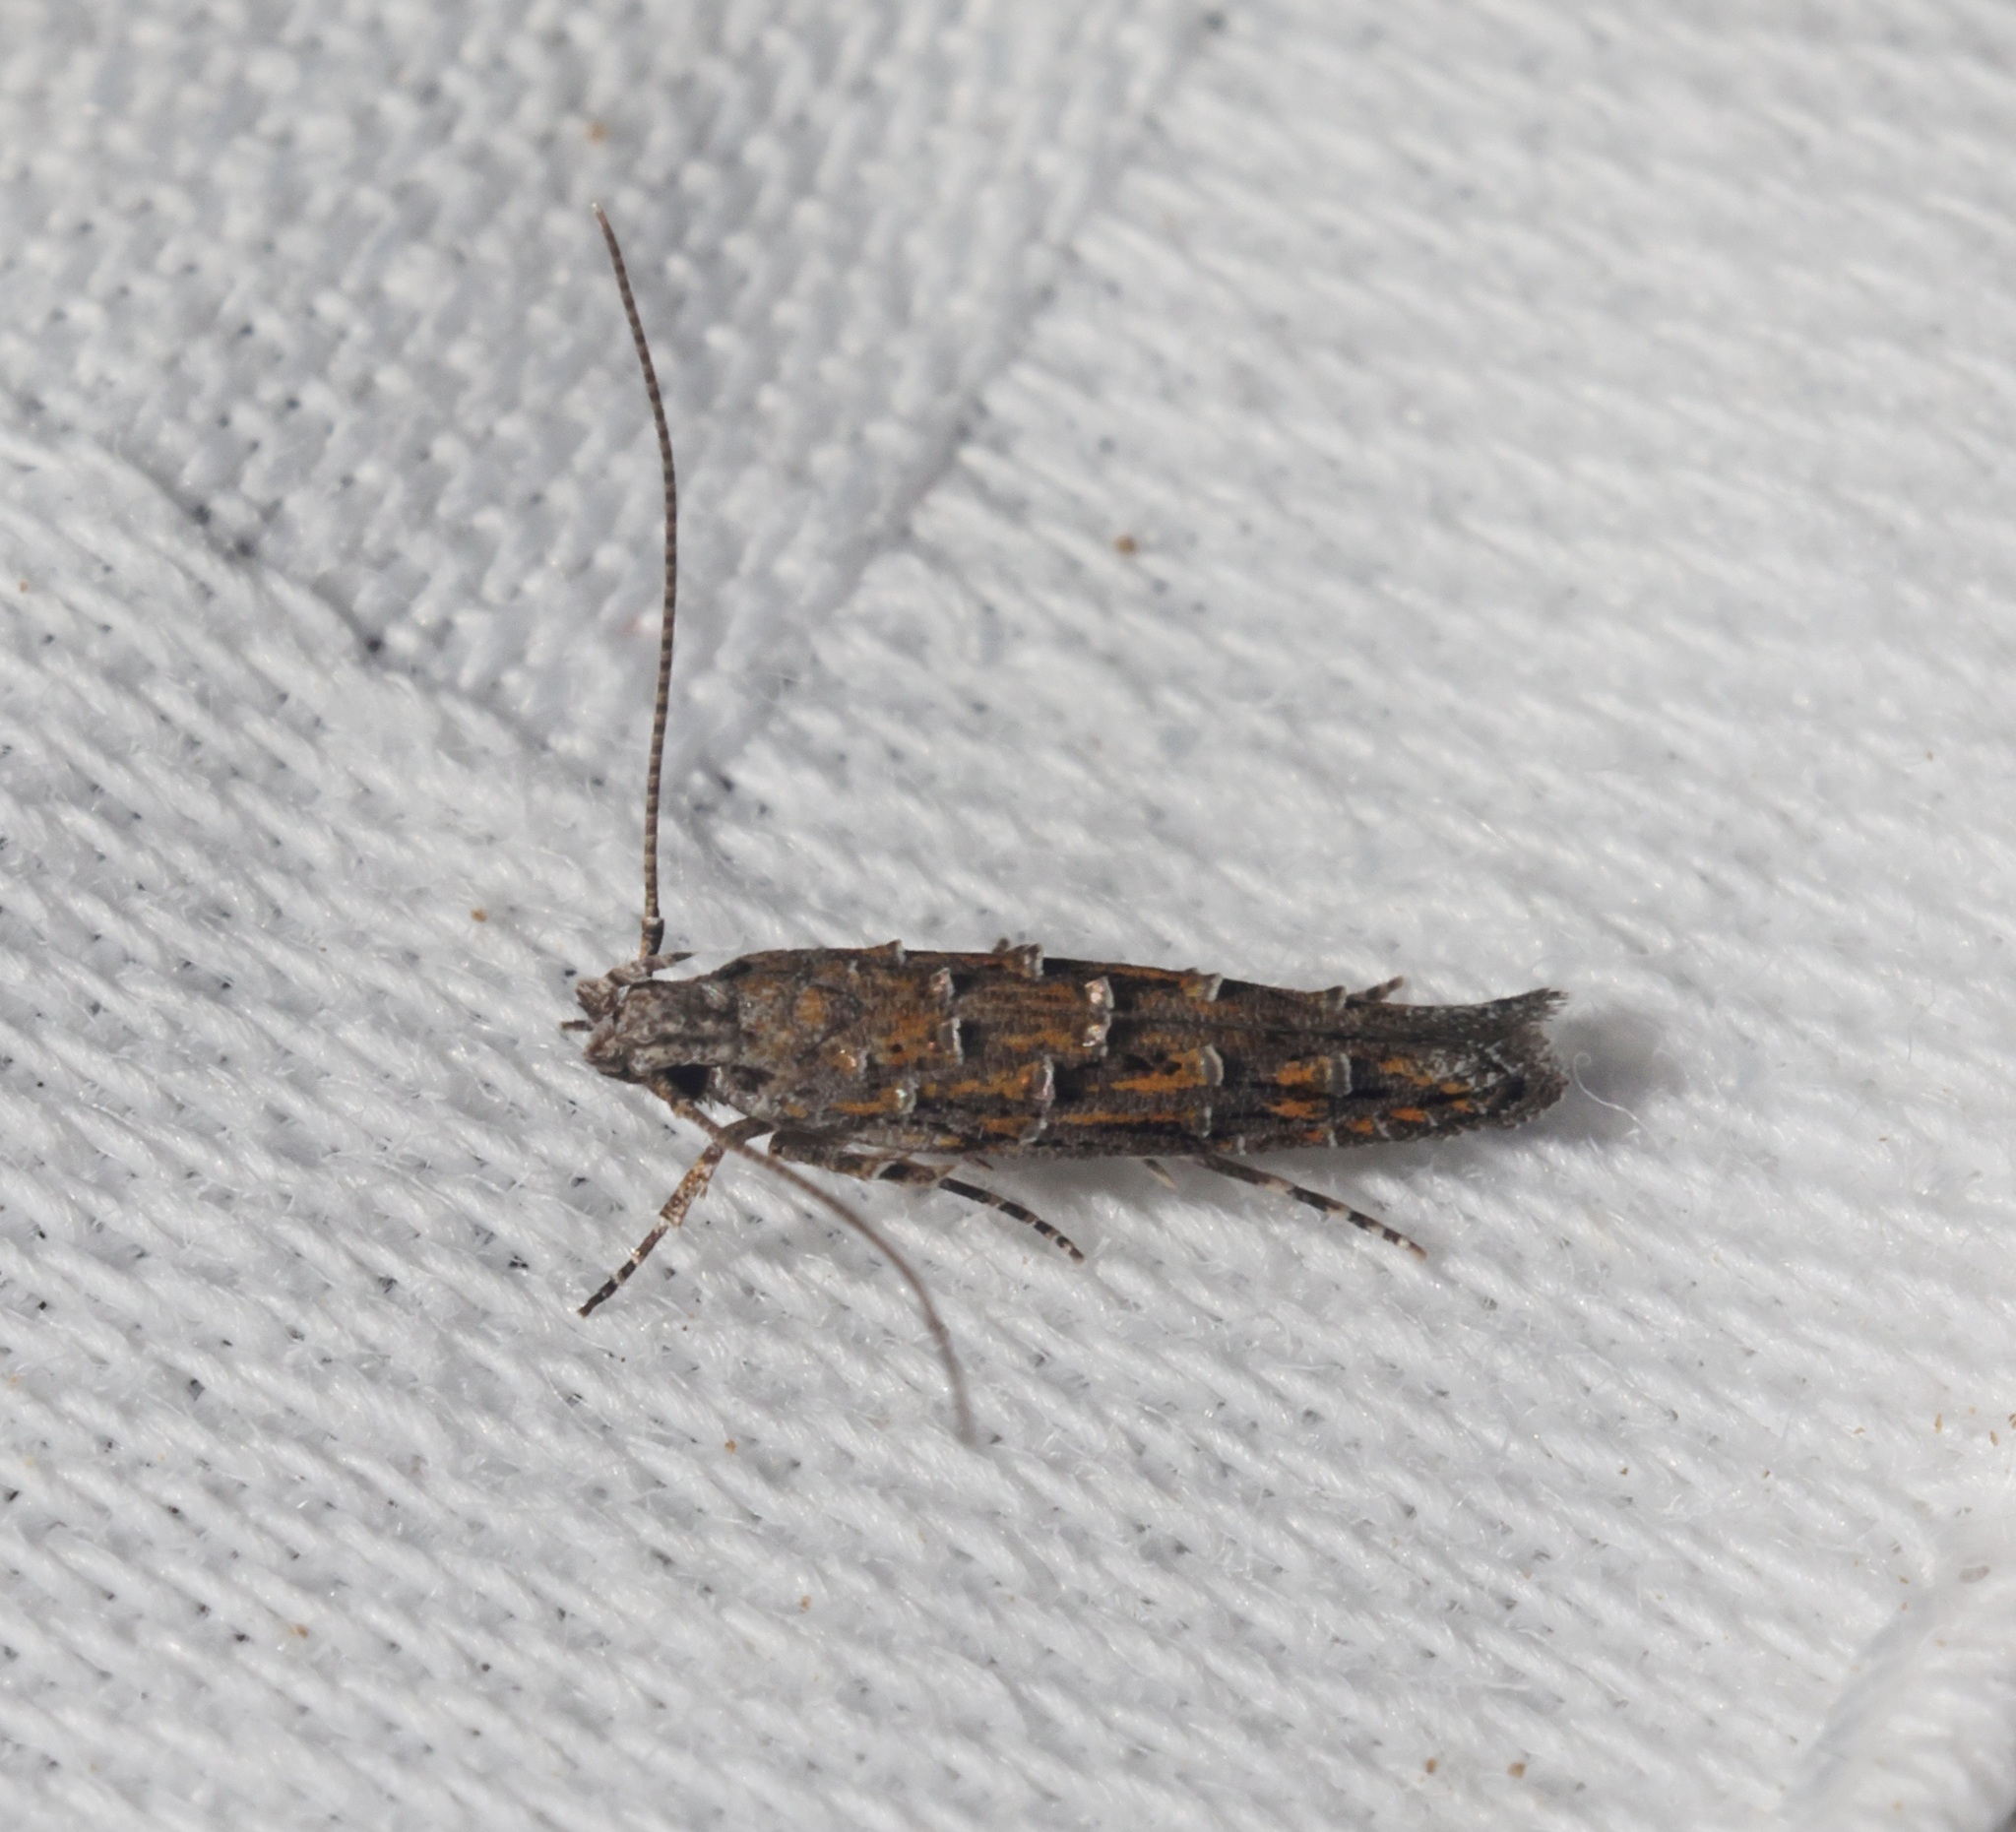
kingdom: Animalia
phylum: Arthropoda
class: Insecta
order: Lepidoptera
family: Yponomeutidae
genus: Metharmostis
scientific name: Metharmostis
